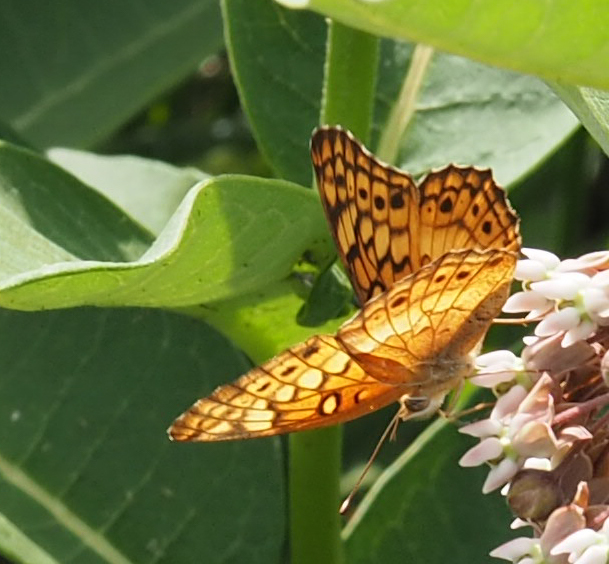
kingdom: Animalia
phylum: Arthropoda
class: Insecta
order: Lepidoptera
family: Nymphalidae
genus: Euptoieta
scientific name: Euptoieta claudia
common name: Variegated fritillary
